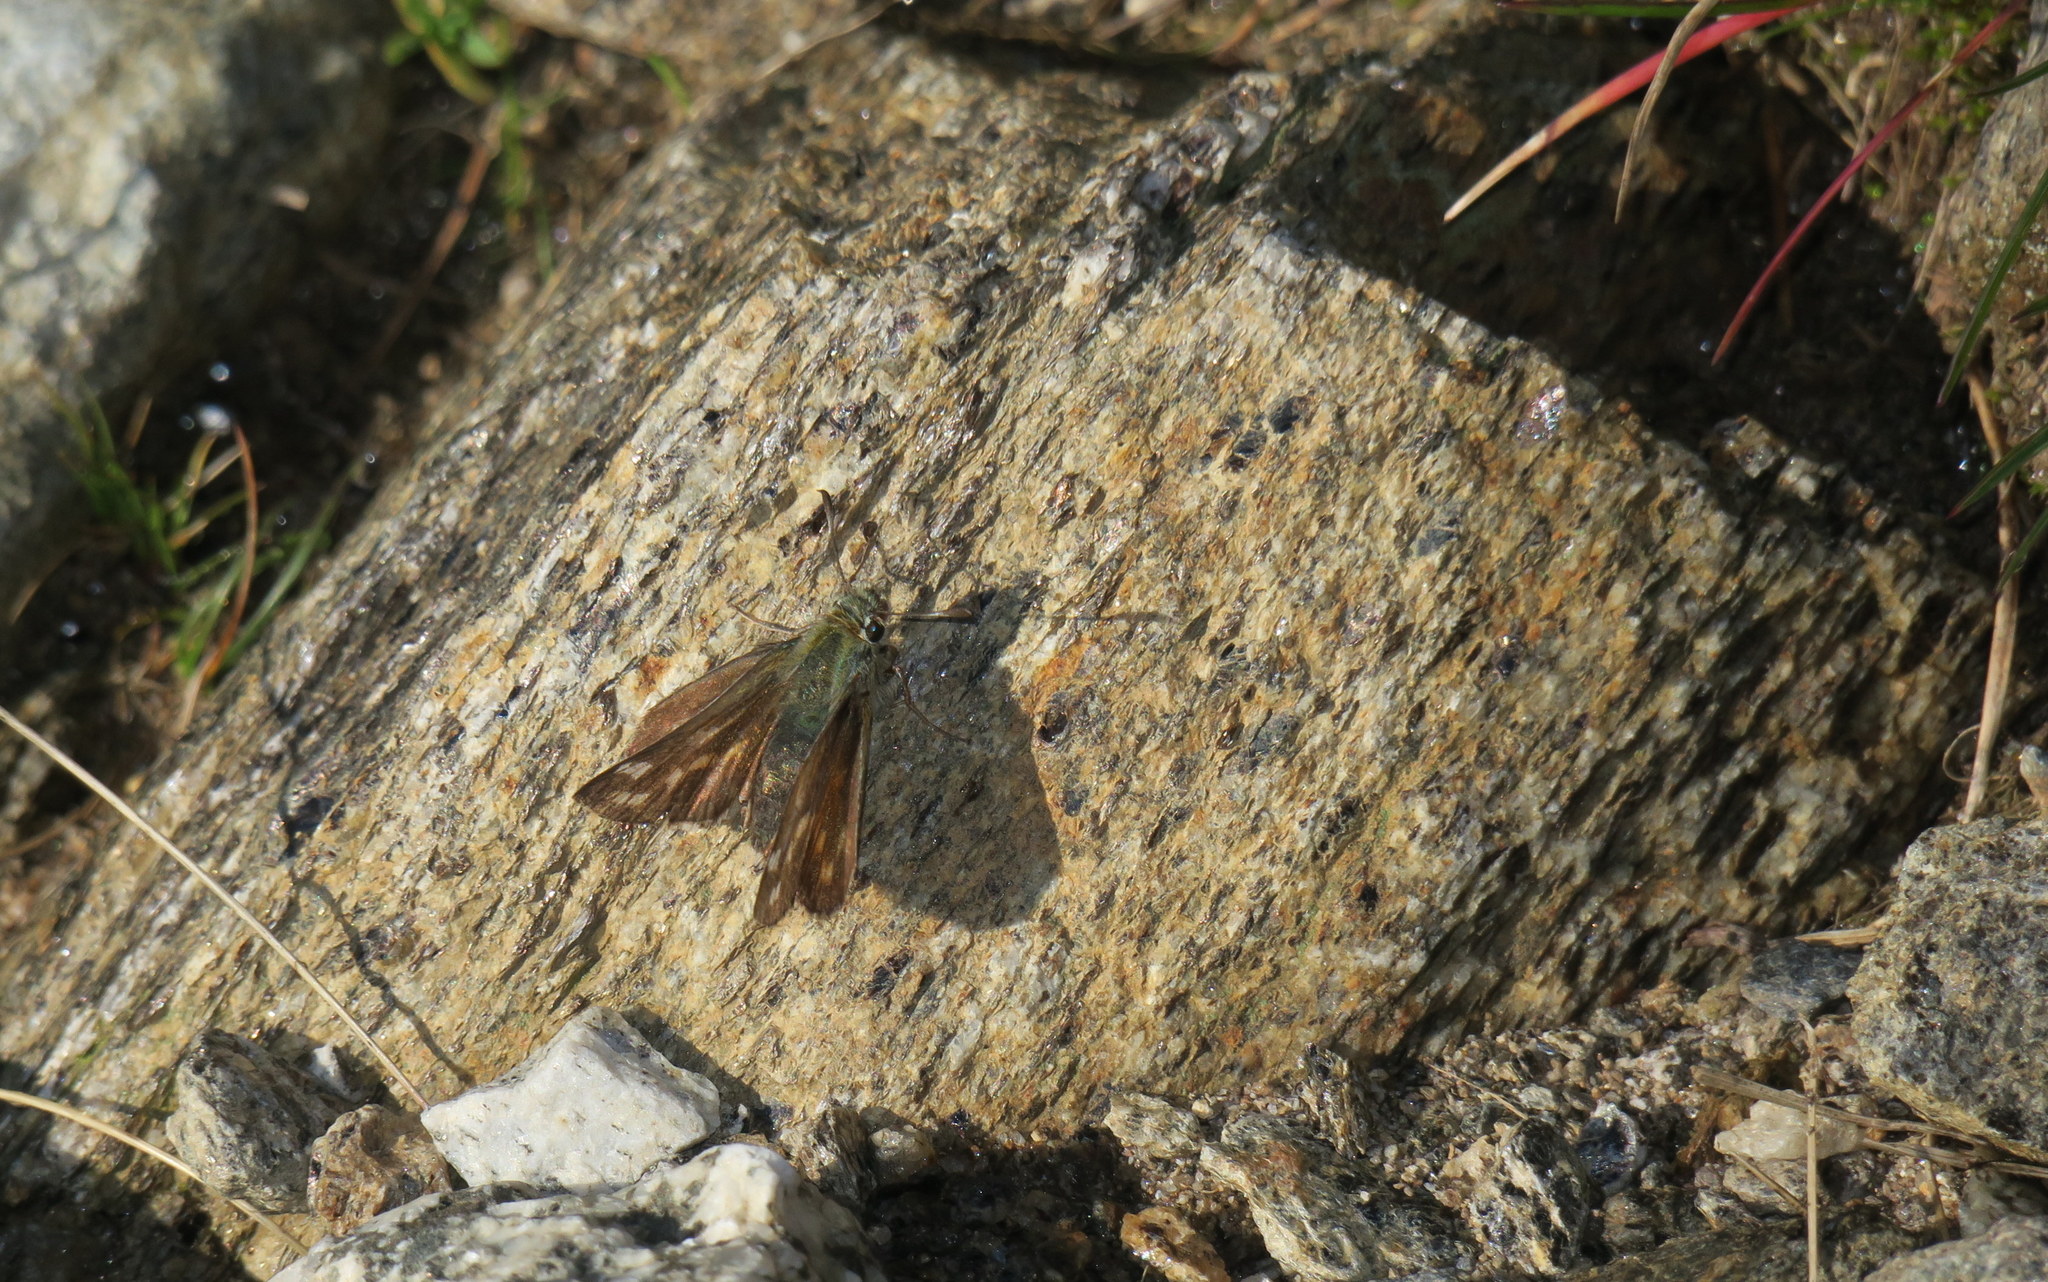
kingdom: Animalia
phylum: Arthropoda
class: Insecta
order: Lepidoptera
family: Hesperiidae
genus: Hesperia
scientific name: Hesperia comma
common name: Common branded skipper
